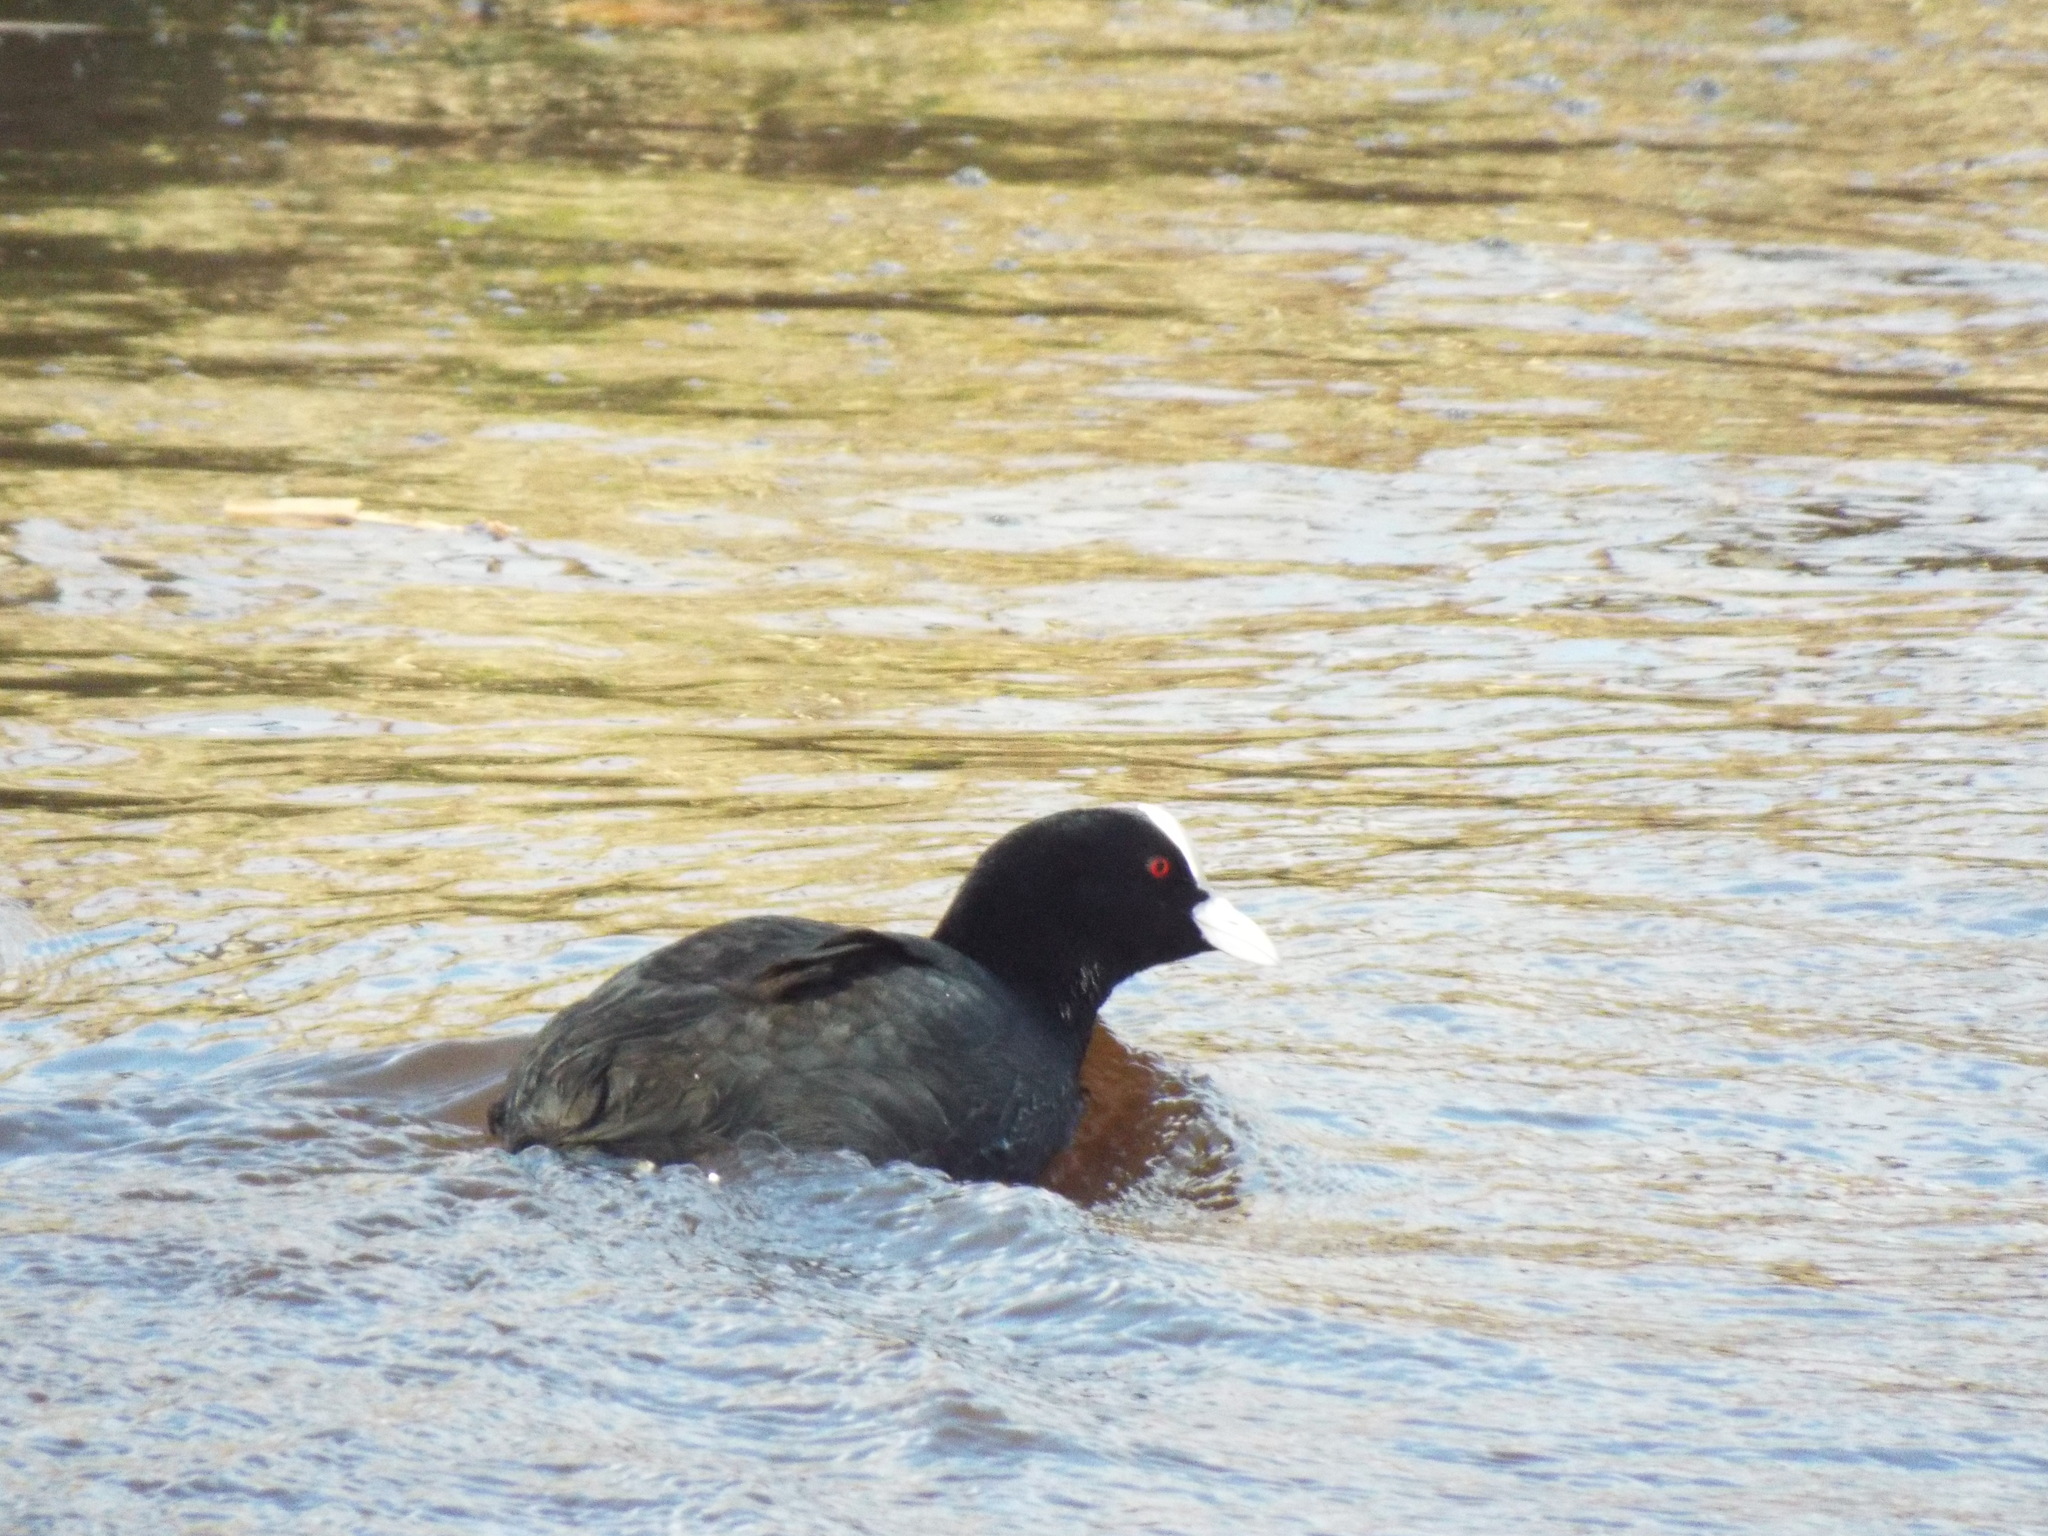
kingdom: Animalia
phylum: Chordata
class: Aves
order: Gruiformes
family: Rallidae
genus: Fulica
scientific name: Fulica atra
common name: Eurasian coot
